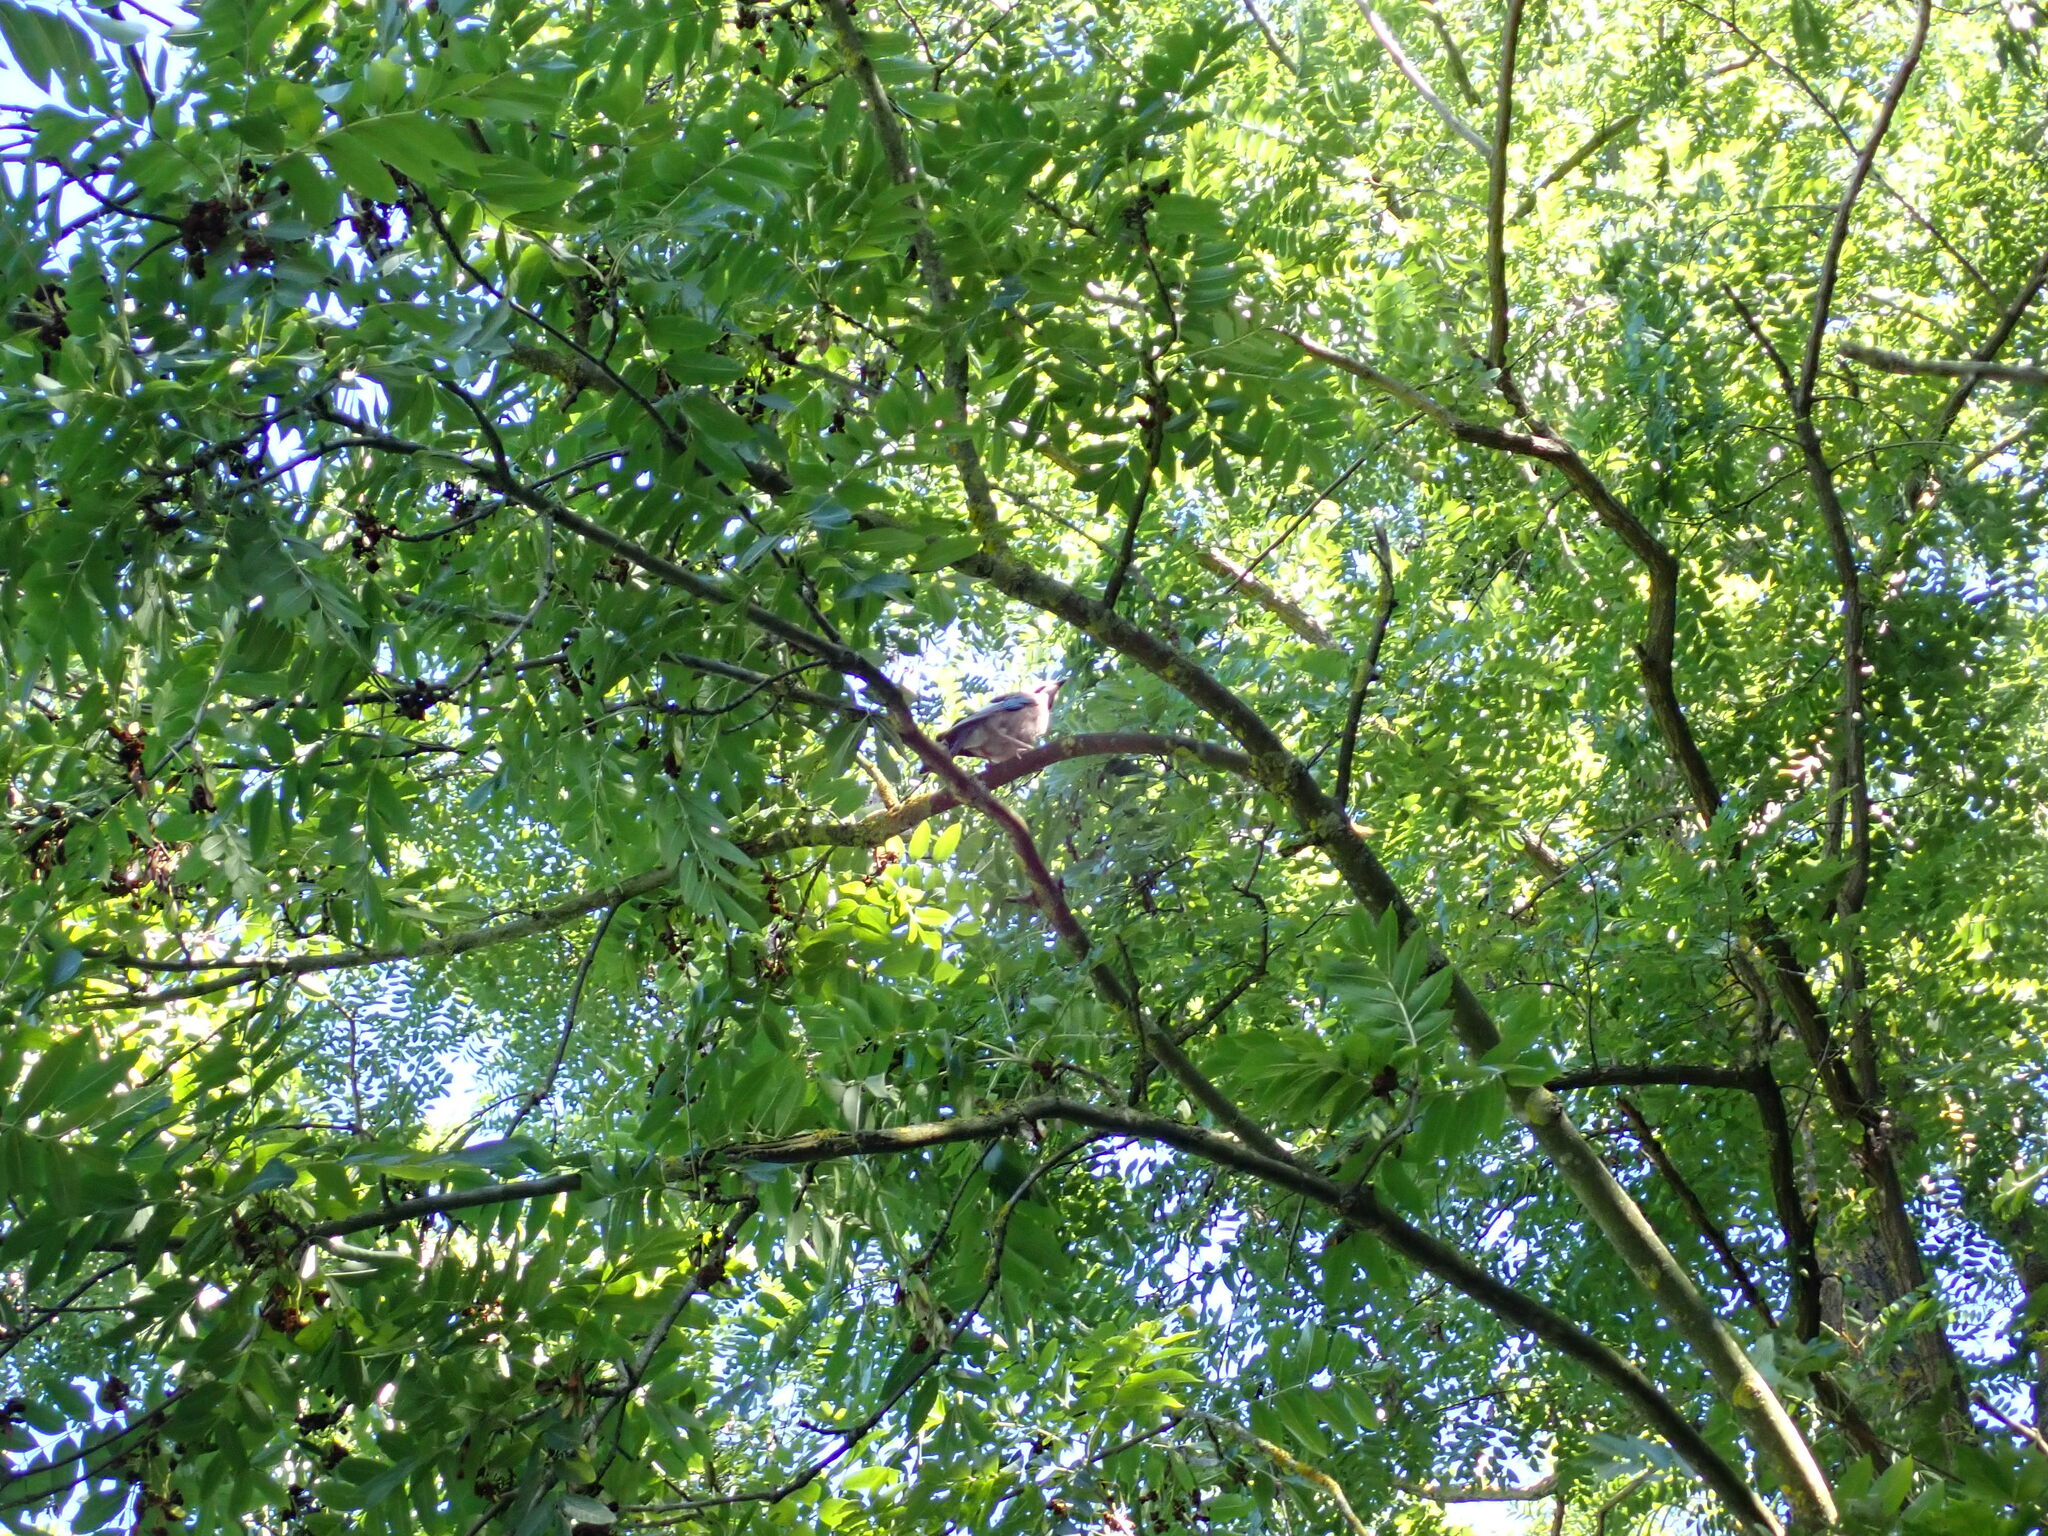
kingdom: Animalia
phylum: Chordata
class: Aves
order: Passeriformes
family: Corvidae
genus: Garrulus
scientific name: Garrulus glandarius
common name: Eurasian jay
